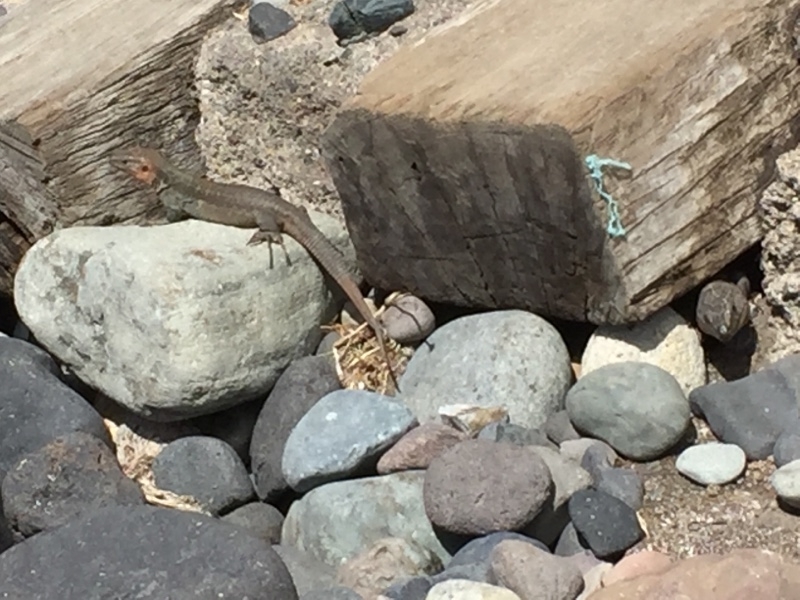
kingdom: Animalia
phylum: Chordata
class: Squamata
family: Lacertidae
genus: Gallotia
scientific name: Gallotia stehlini
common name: Gran canaria giant lizard
